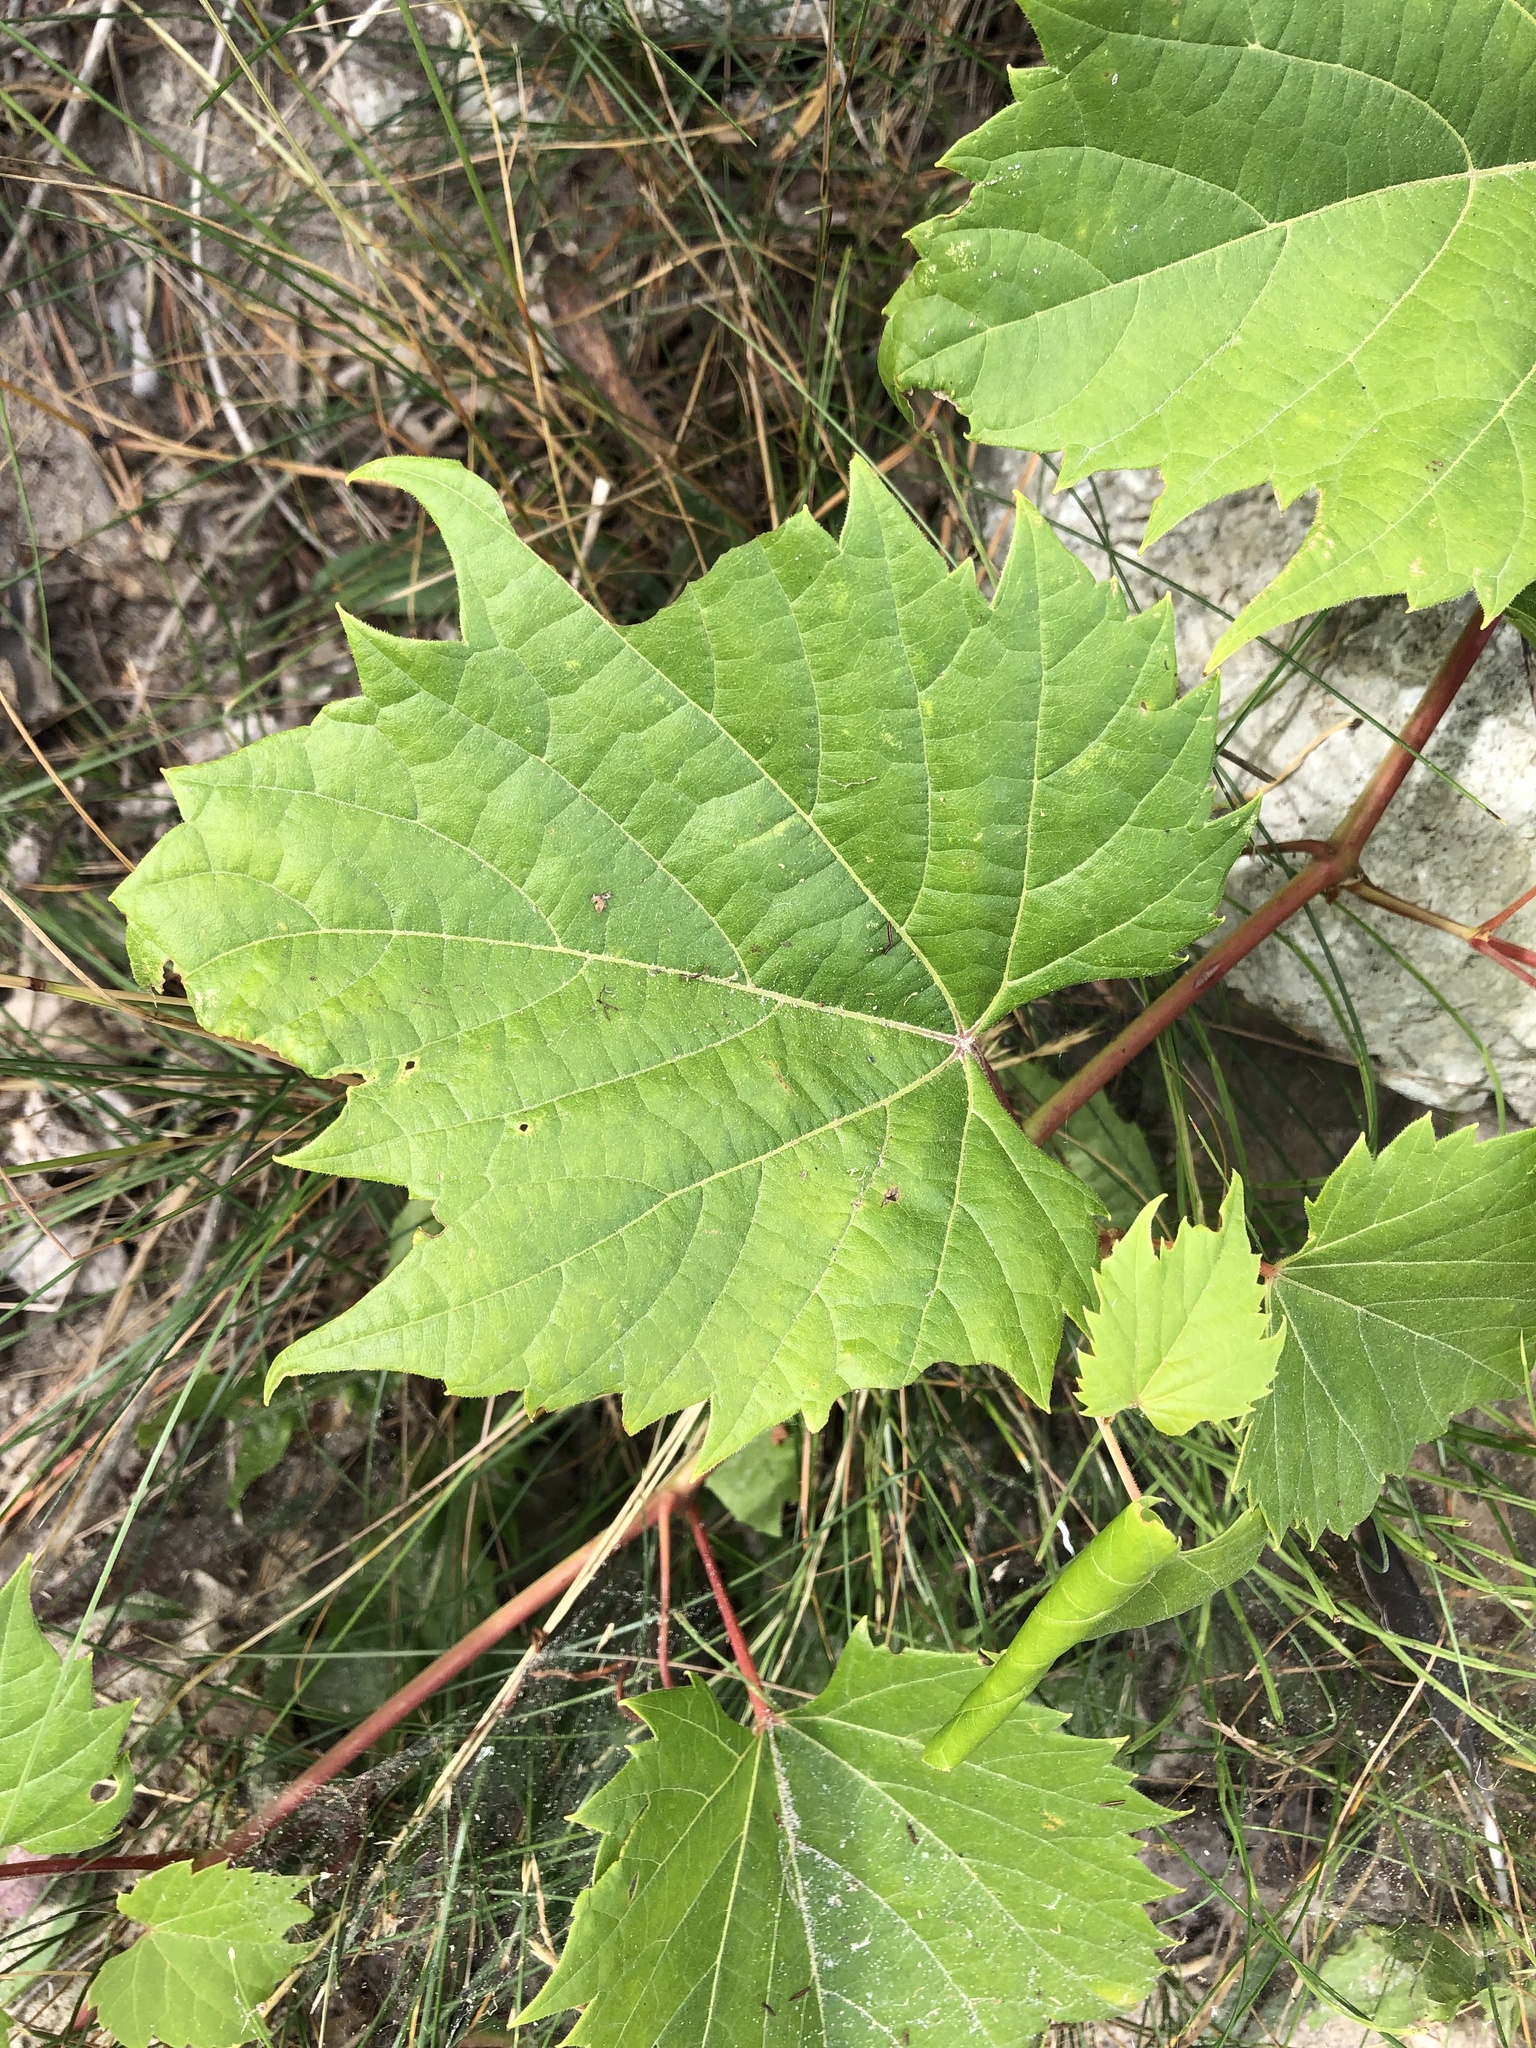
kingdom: Plantae
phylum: Tracheophyta
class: Magnoliopsida
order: Vitales
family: Vitaceae
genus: Vitis
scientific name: Vitis riparia
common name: Frost grape
